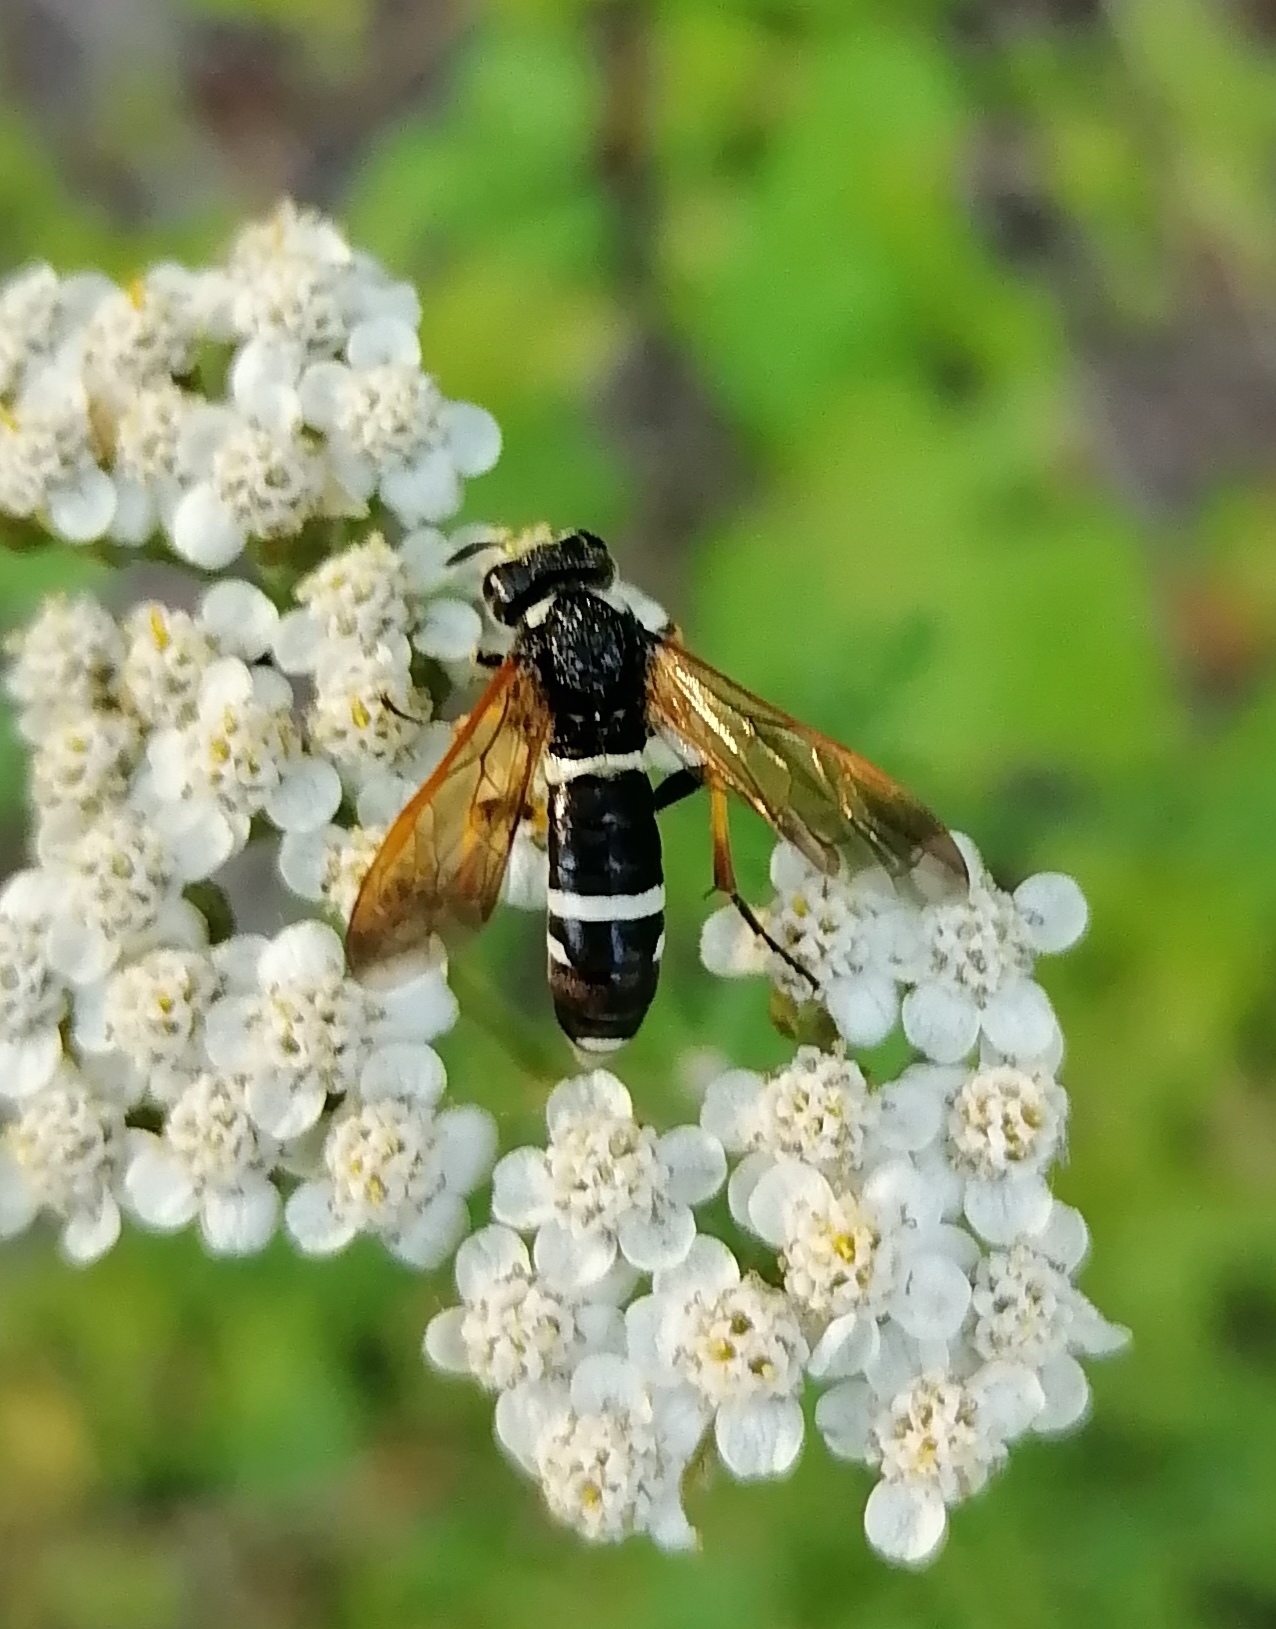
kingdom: Animalia
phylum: Arthropoda
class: Insecta
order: Hymenoptera
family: Tenthredinidae
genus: Tenthredo
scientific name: Tenthredo marginella
